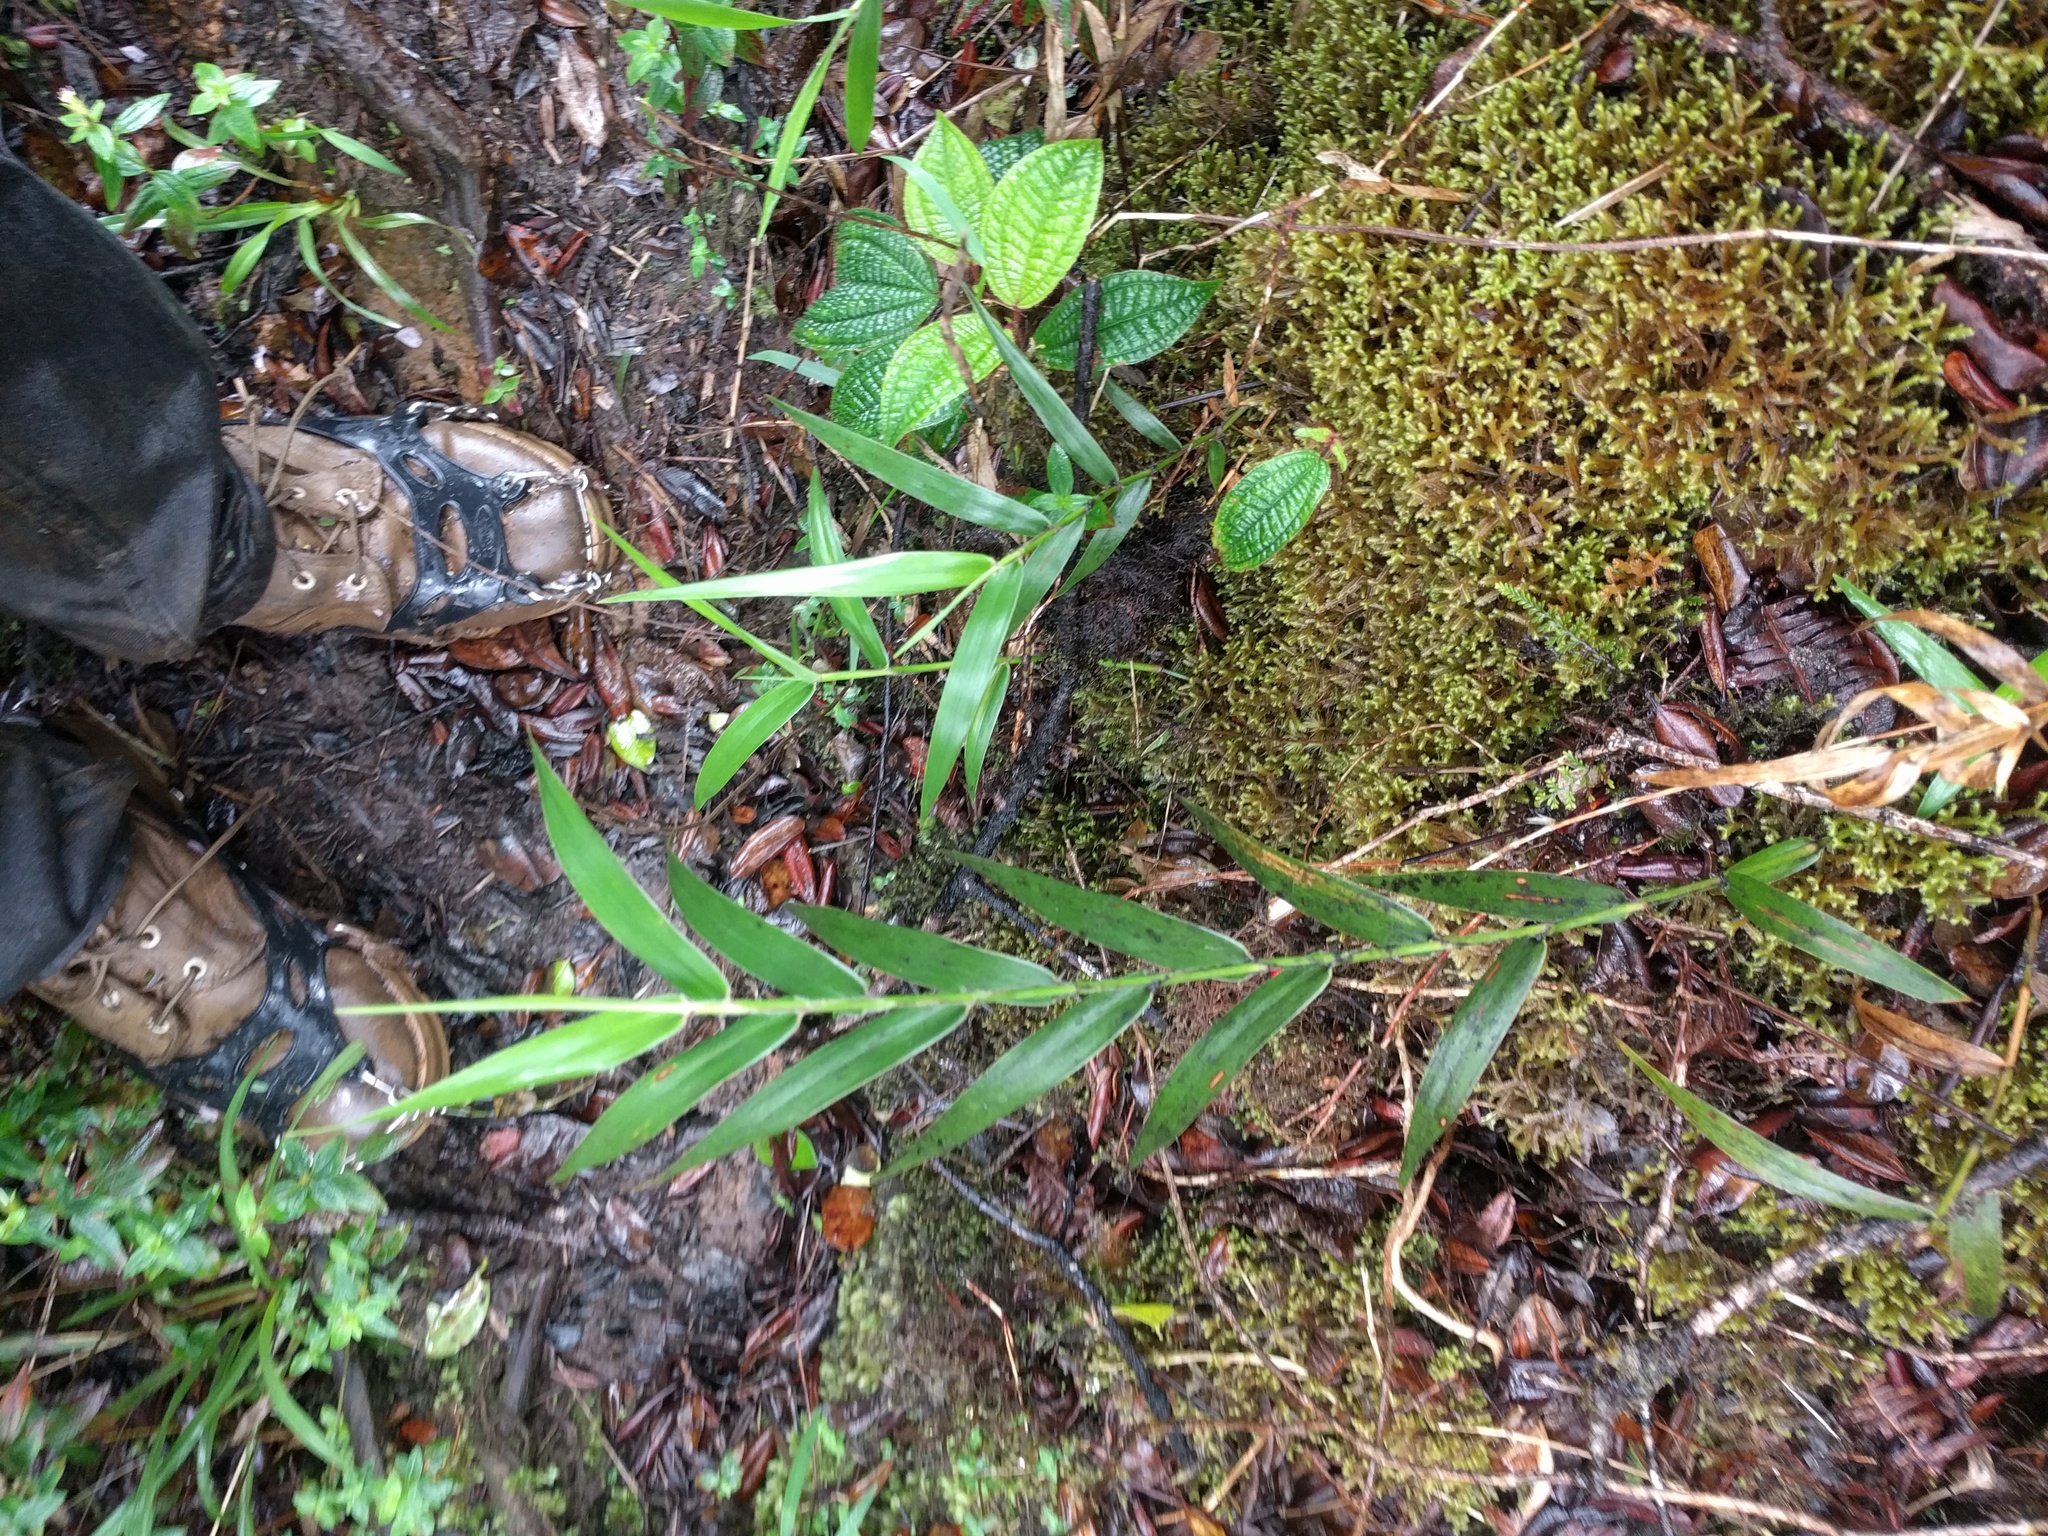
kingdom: Plantae
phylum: Tracheophyta
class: Liliopsida
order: Poales
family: Poaceae
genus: Isachne
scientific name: Isachne distichophylla
